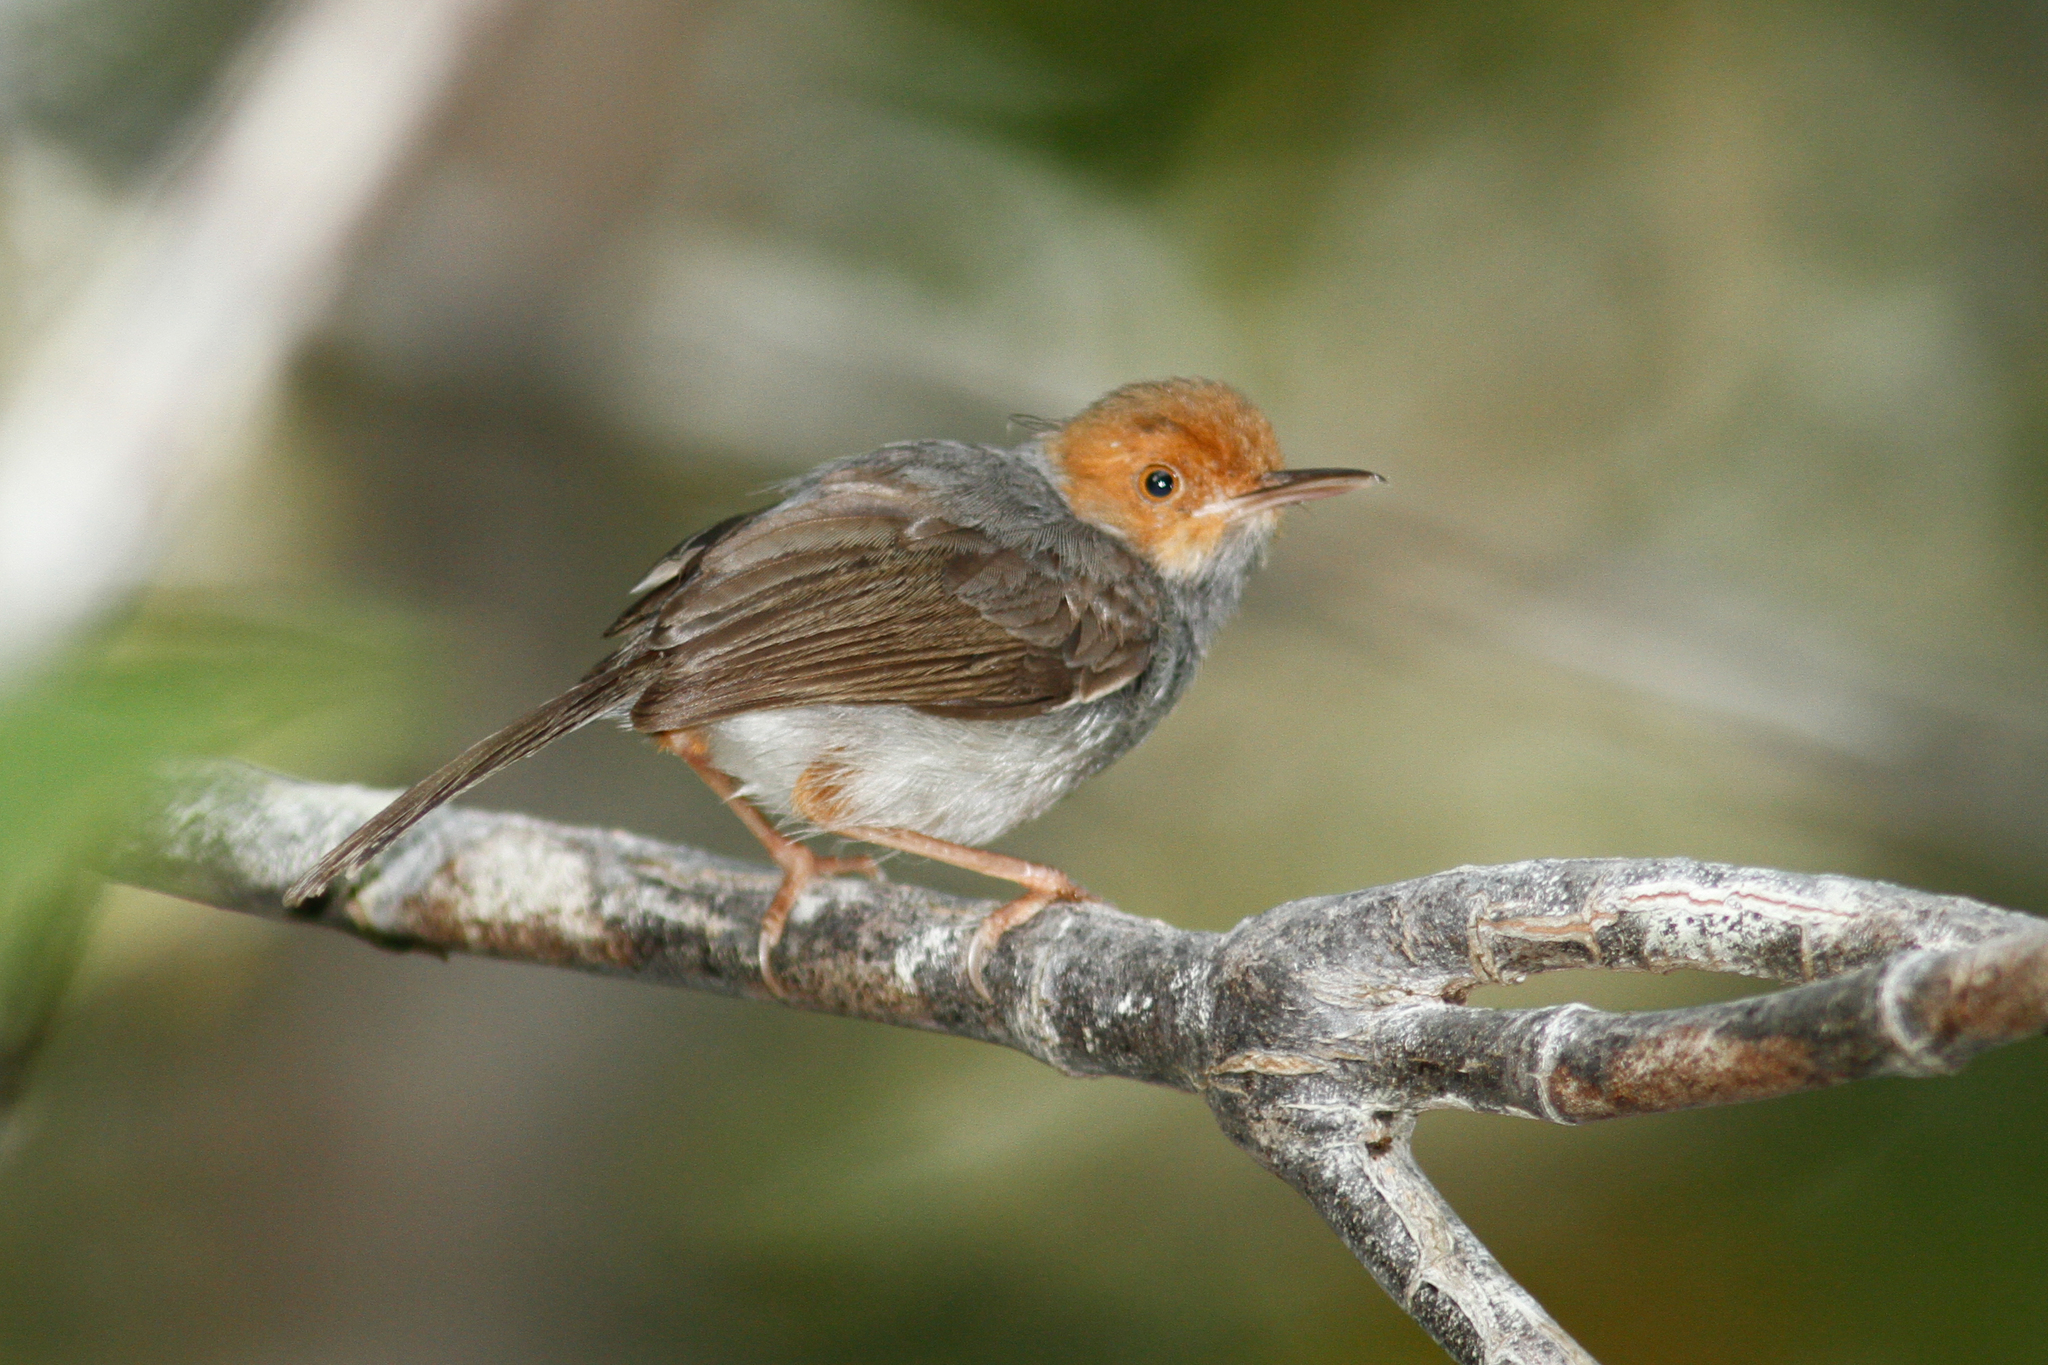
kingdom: Animalia
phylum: Chordata
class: Aves
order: Passeriformes
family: Cisticolidae
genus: Orthotomus
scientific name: Orthotomus ruficeps
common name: Ashy tailorbird
